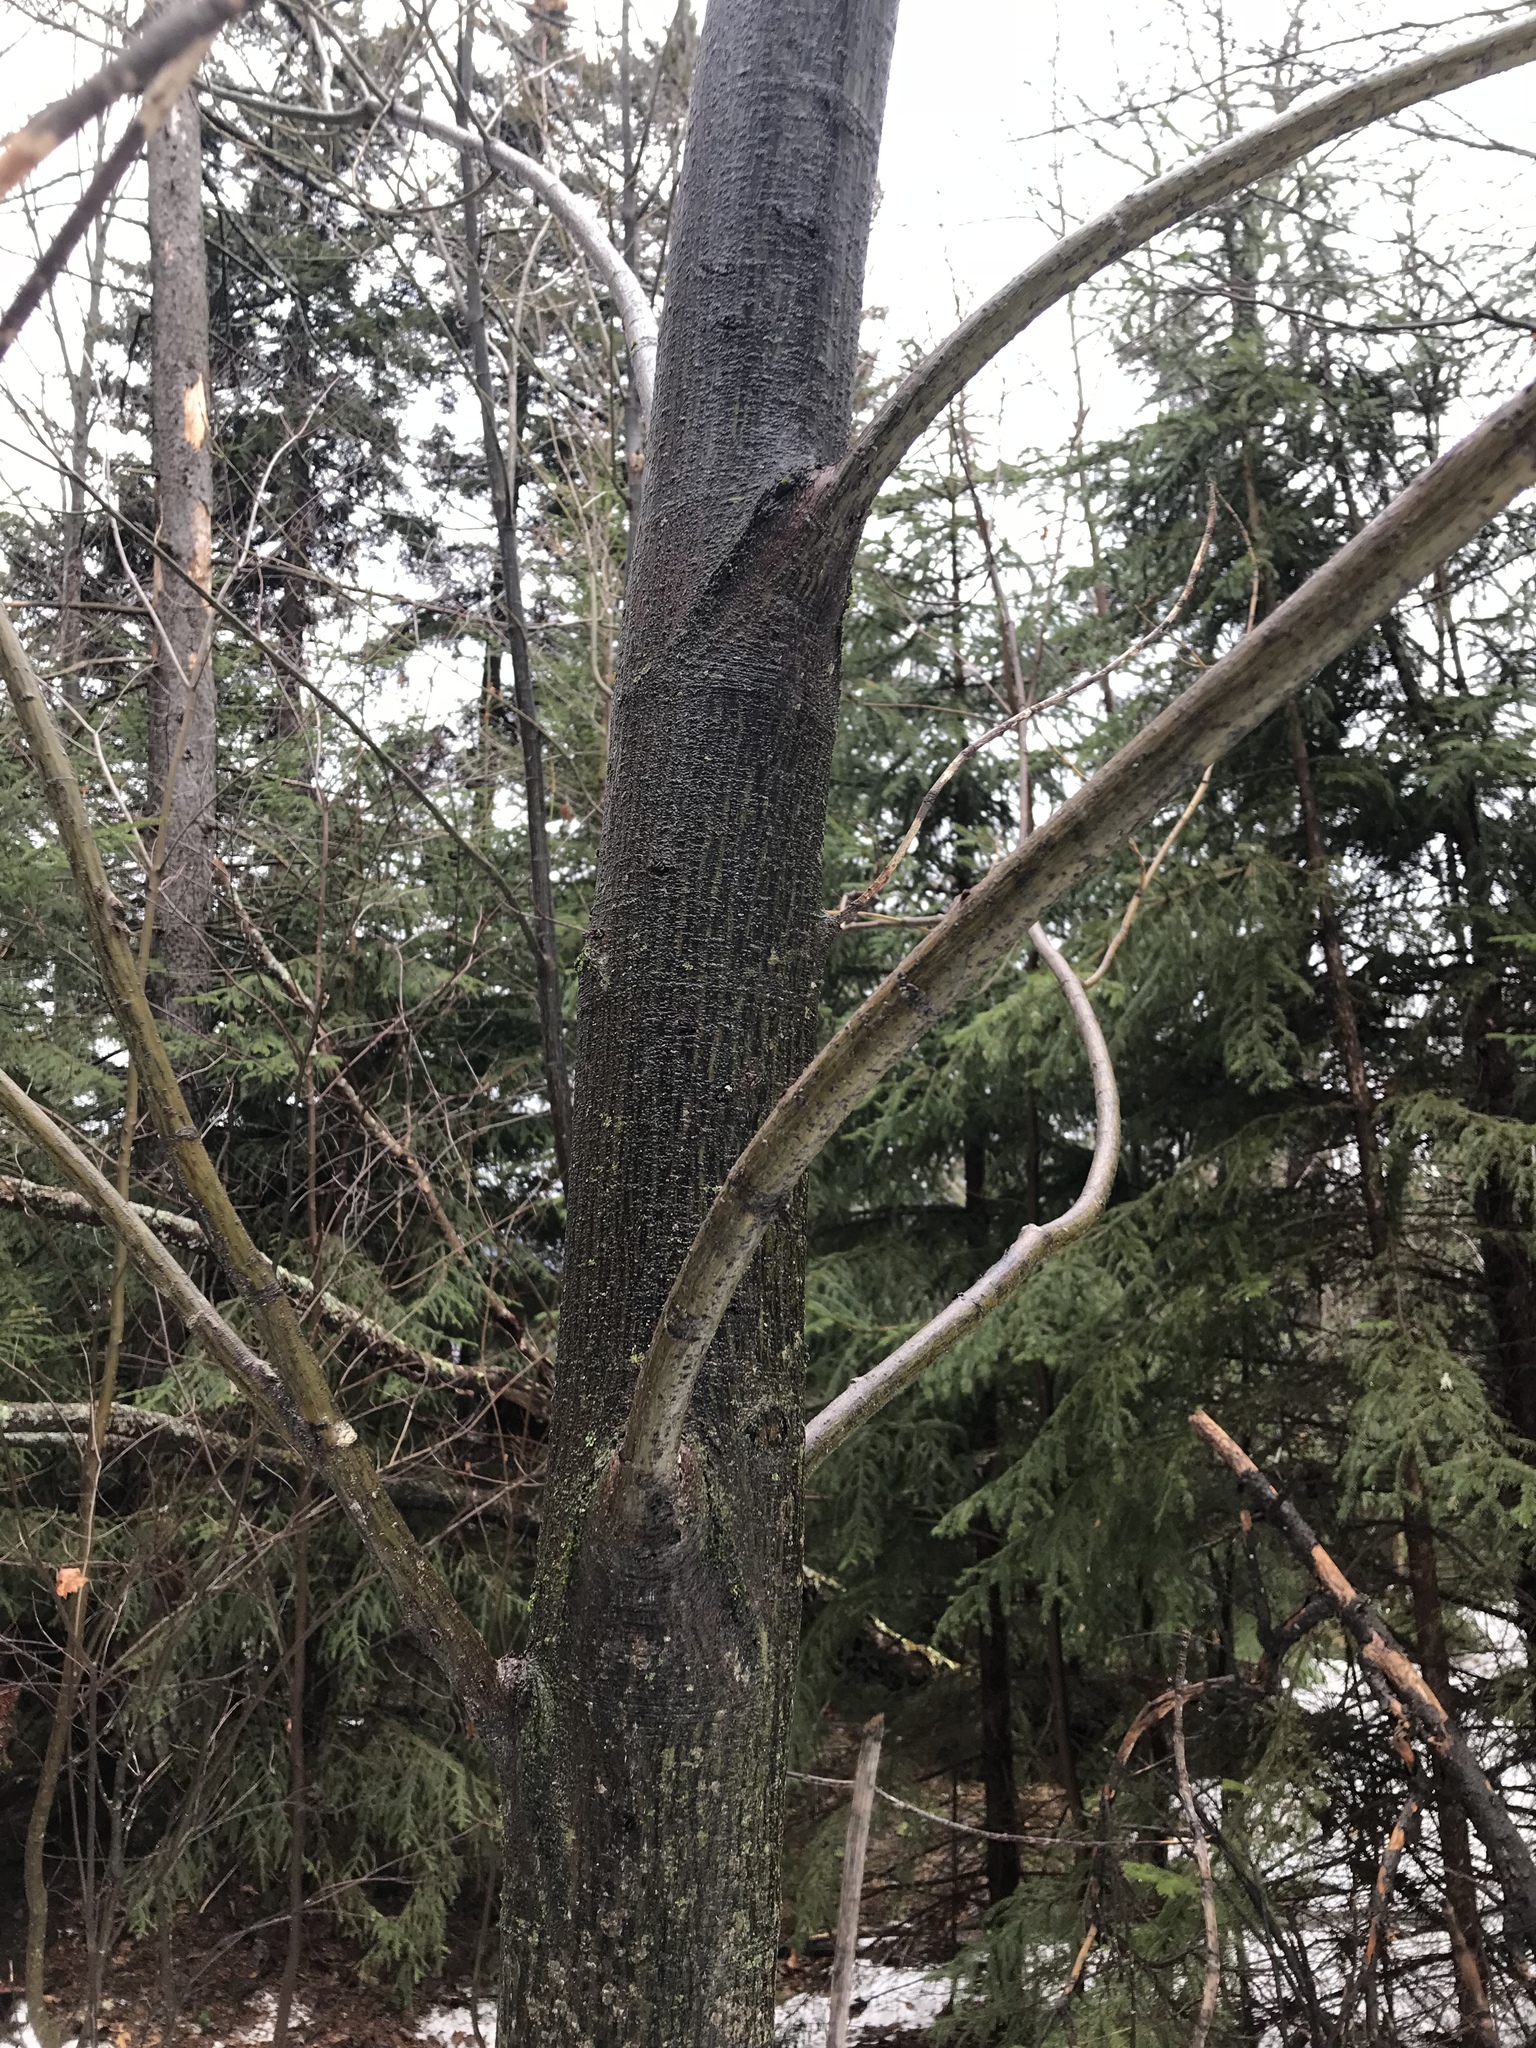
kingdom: Plantae
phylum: Tracheophyta
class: Magnoliopsida
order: Sapindales
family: Sapindaceae
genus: Acer
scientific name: Acer pensylvanicum
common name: Moosewood
